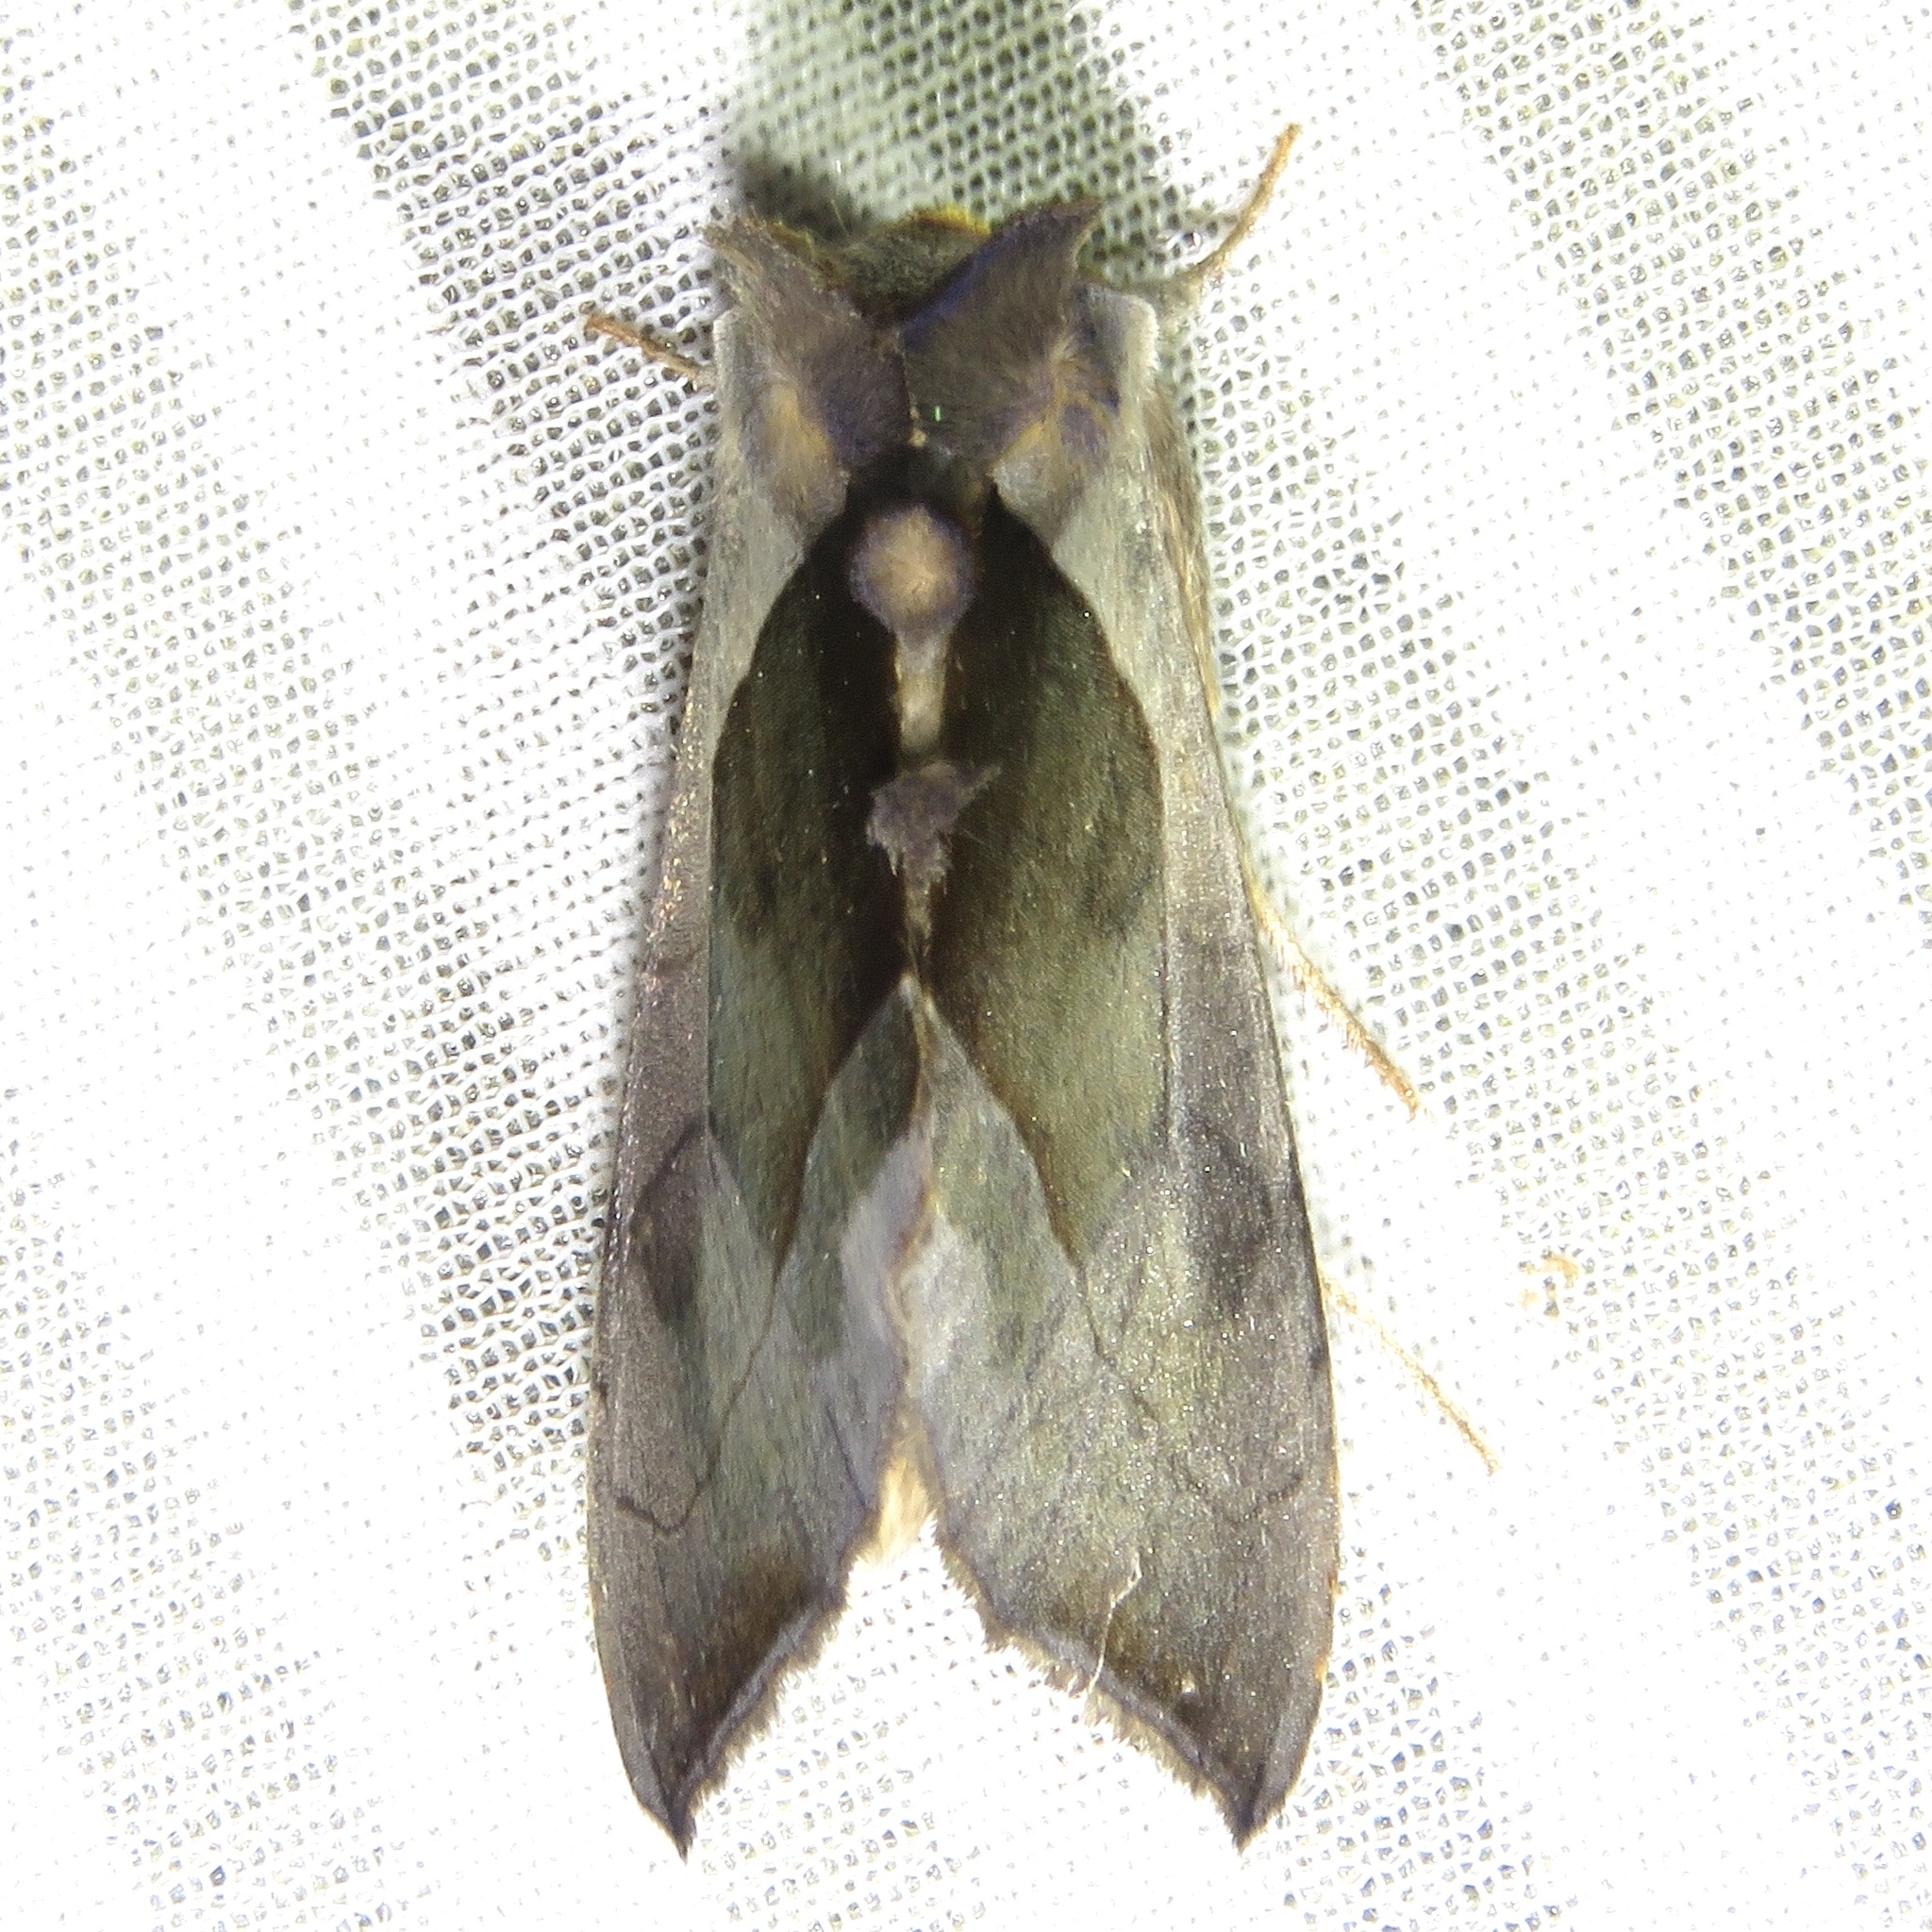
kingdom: Animalia
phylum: Arthropoda
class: Insecta
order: Lepidoptera
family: Noctuidae
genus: Diachrysia
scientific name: Diachrysia balluca
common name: Green-patched looper moth
